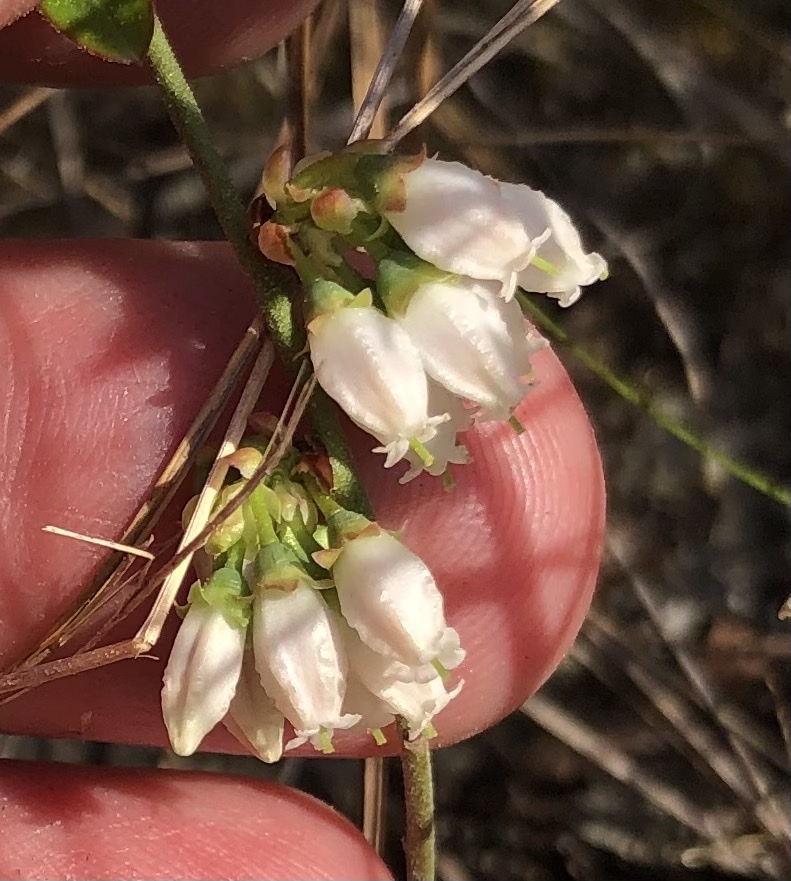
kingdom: Plantae
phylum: Tracheophyta
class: Magnoliopsida
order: Ericales
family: Ericaceae
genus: Vaccinium
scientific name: Vaccinium tenellum
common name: Southern blueberry
